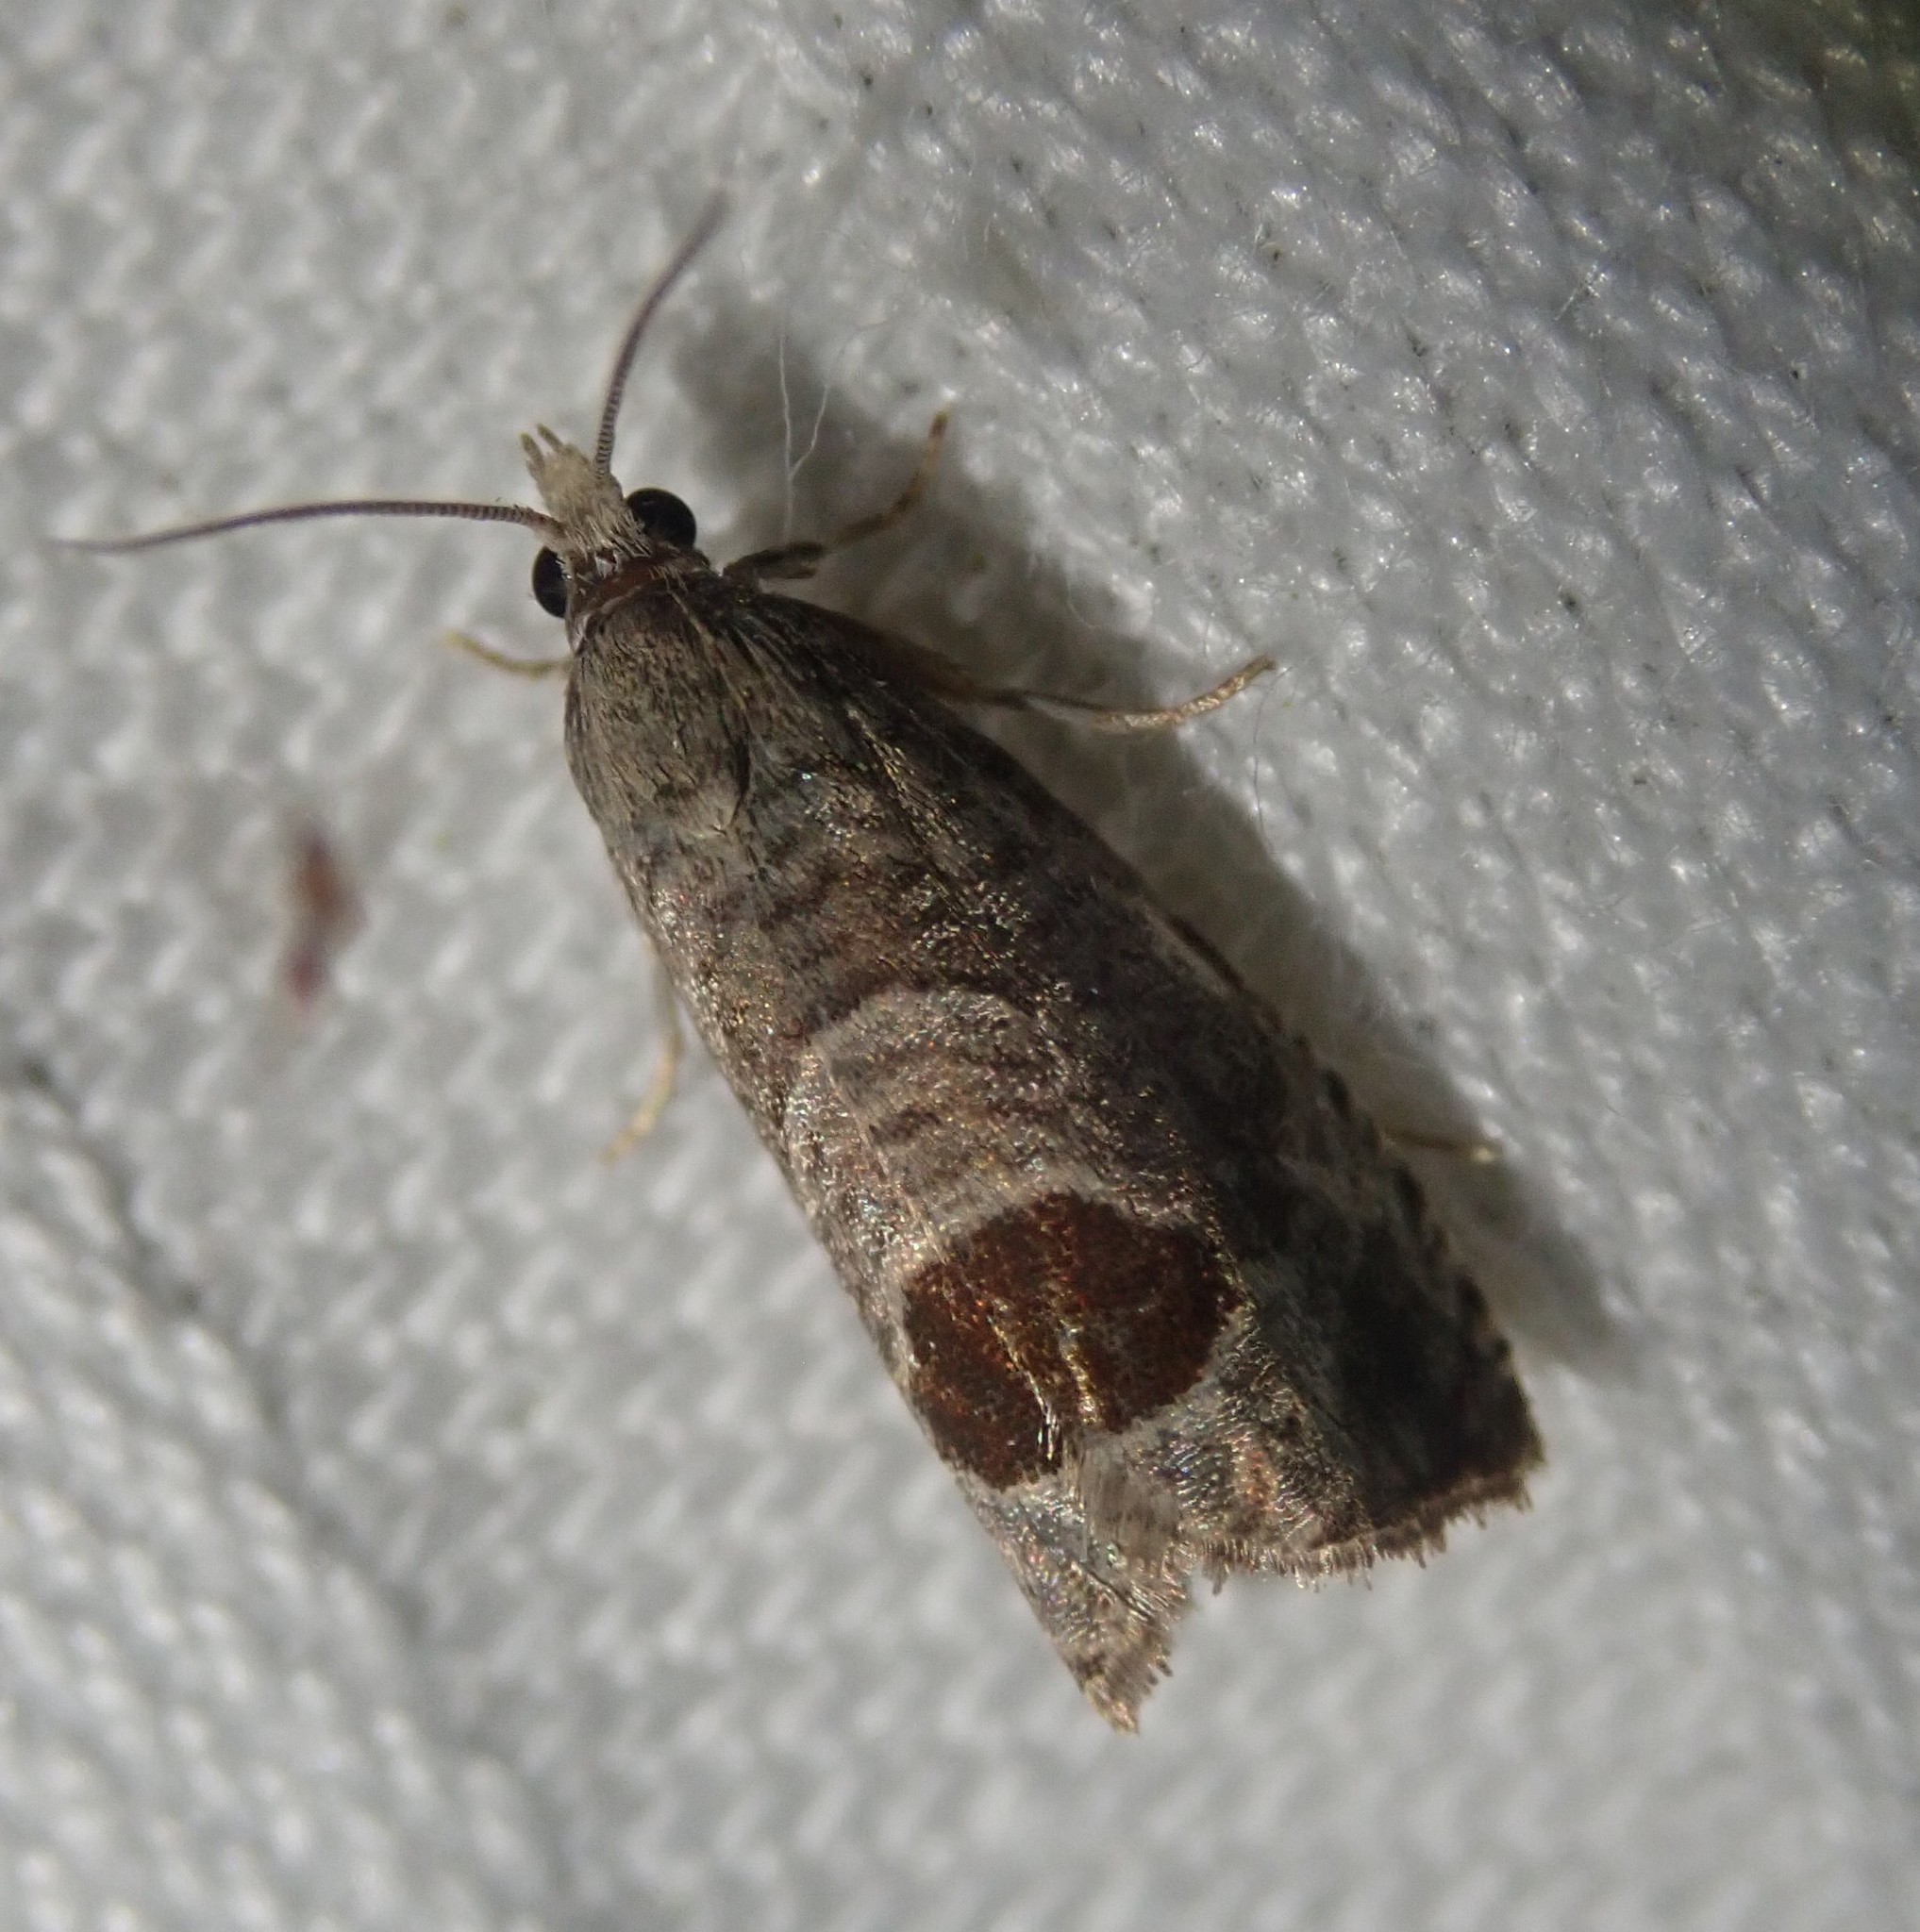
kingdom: Animalia
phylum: Arthropoda
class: Insecta
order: Lepidoptera
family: Tortricidae
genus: Notocelia
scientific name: Notocelia uddmanniana
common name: Bramble shoot moth
